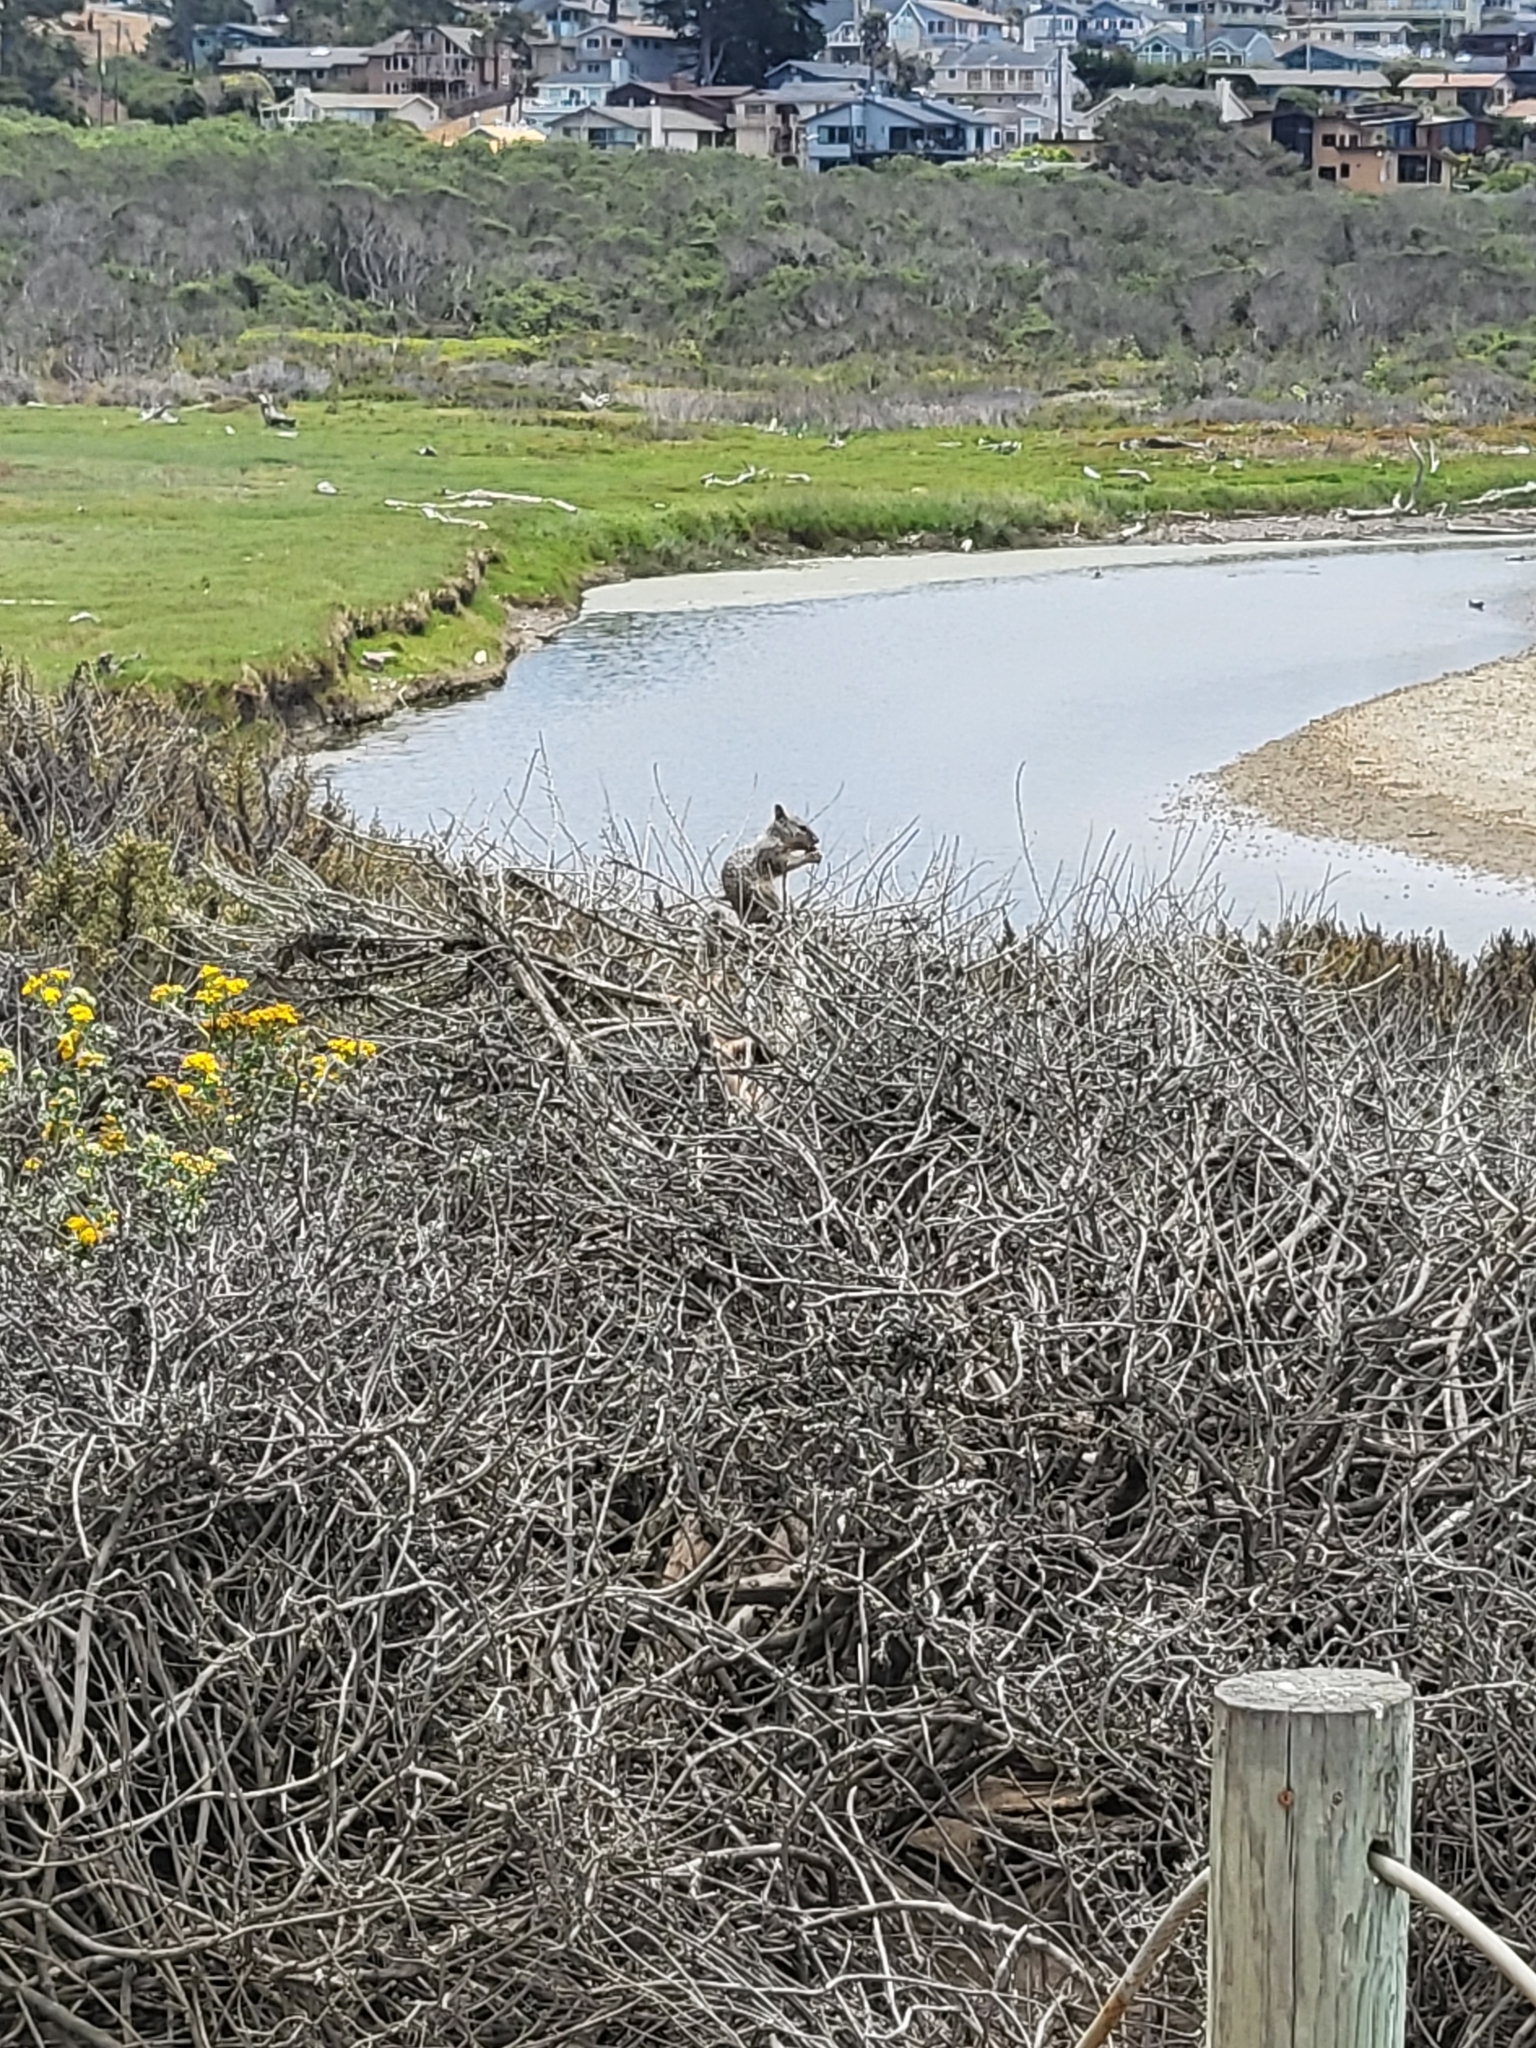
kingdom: Animalia
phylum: Chordata
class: Mammalia
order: Rodentia
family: Sciuridae
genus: Otospermophilus
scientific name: Otospermophilus beecheyi
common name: California ground squirrel
